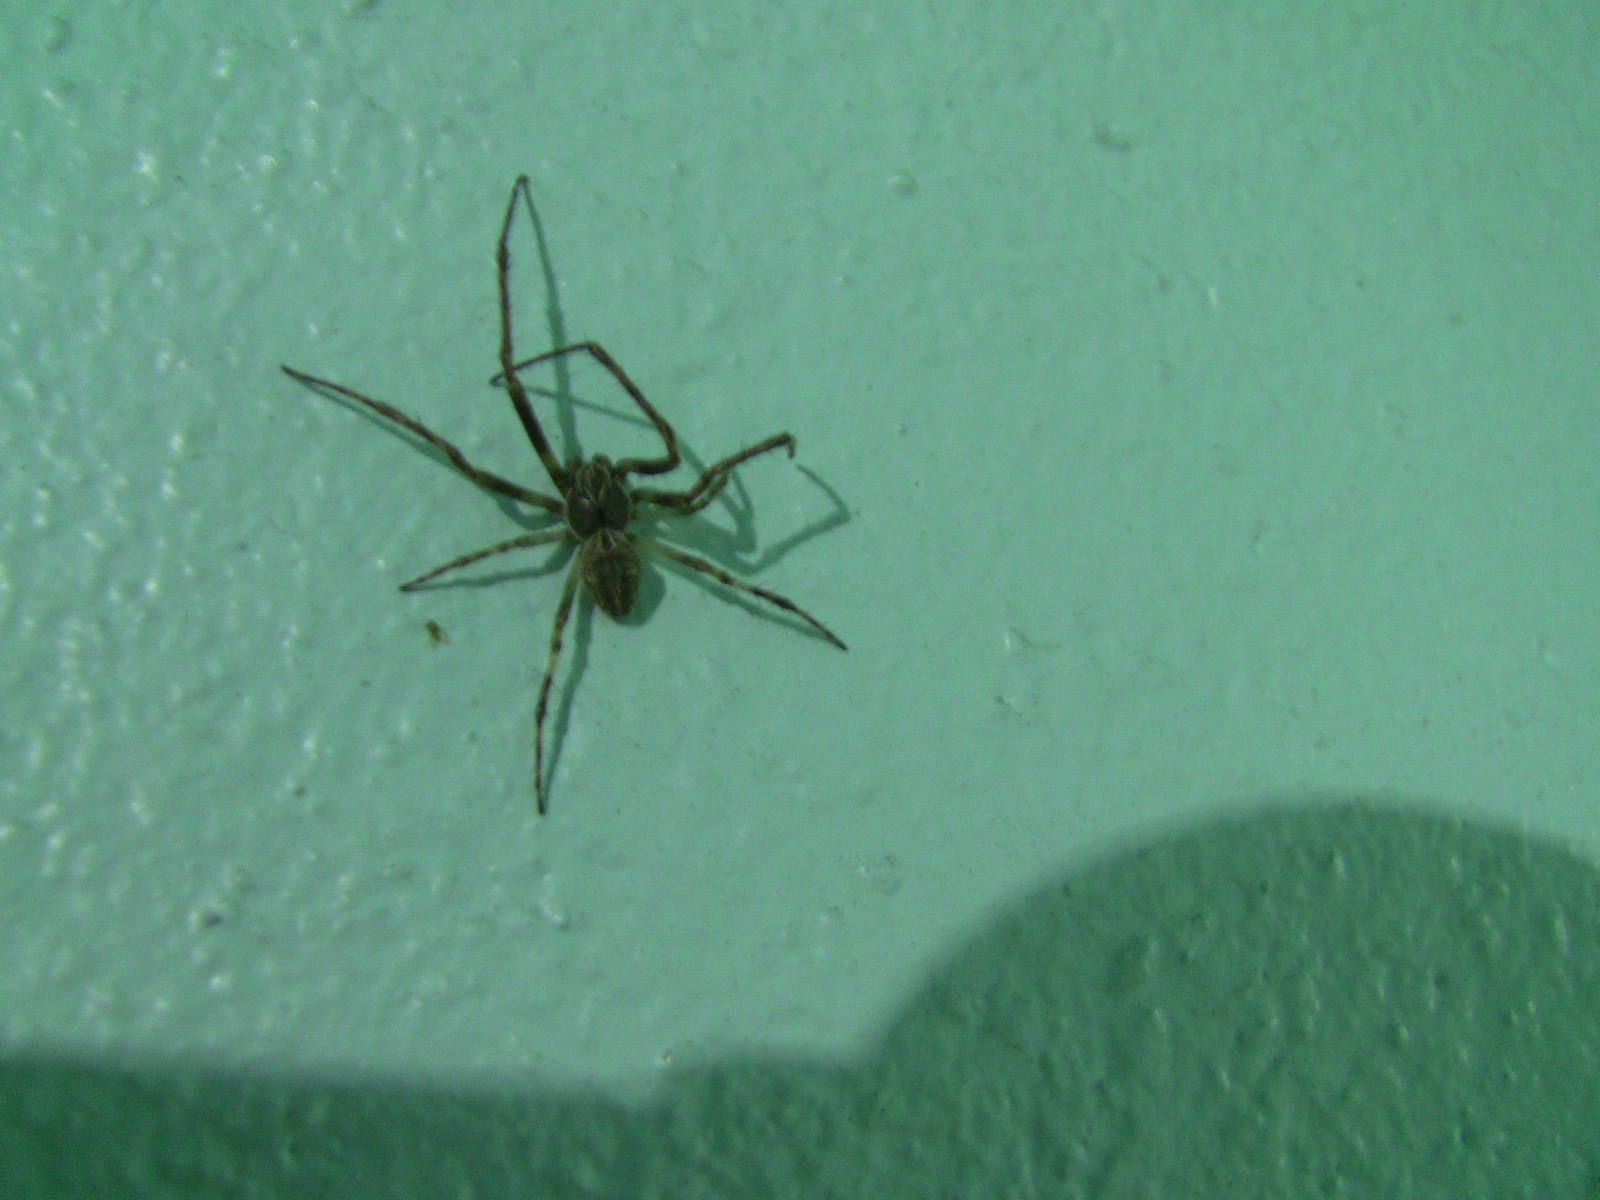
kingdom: Animalia
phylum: Arthropoda
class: Arachnida
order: Araneae
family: Araneidae
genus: Larinioides
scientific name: Larinioides sclopetarius
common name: Bridge orbweaver
